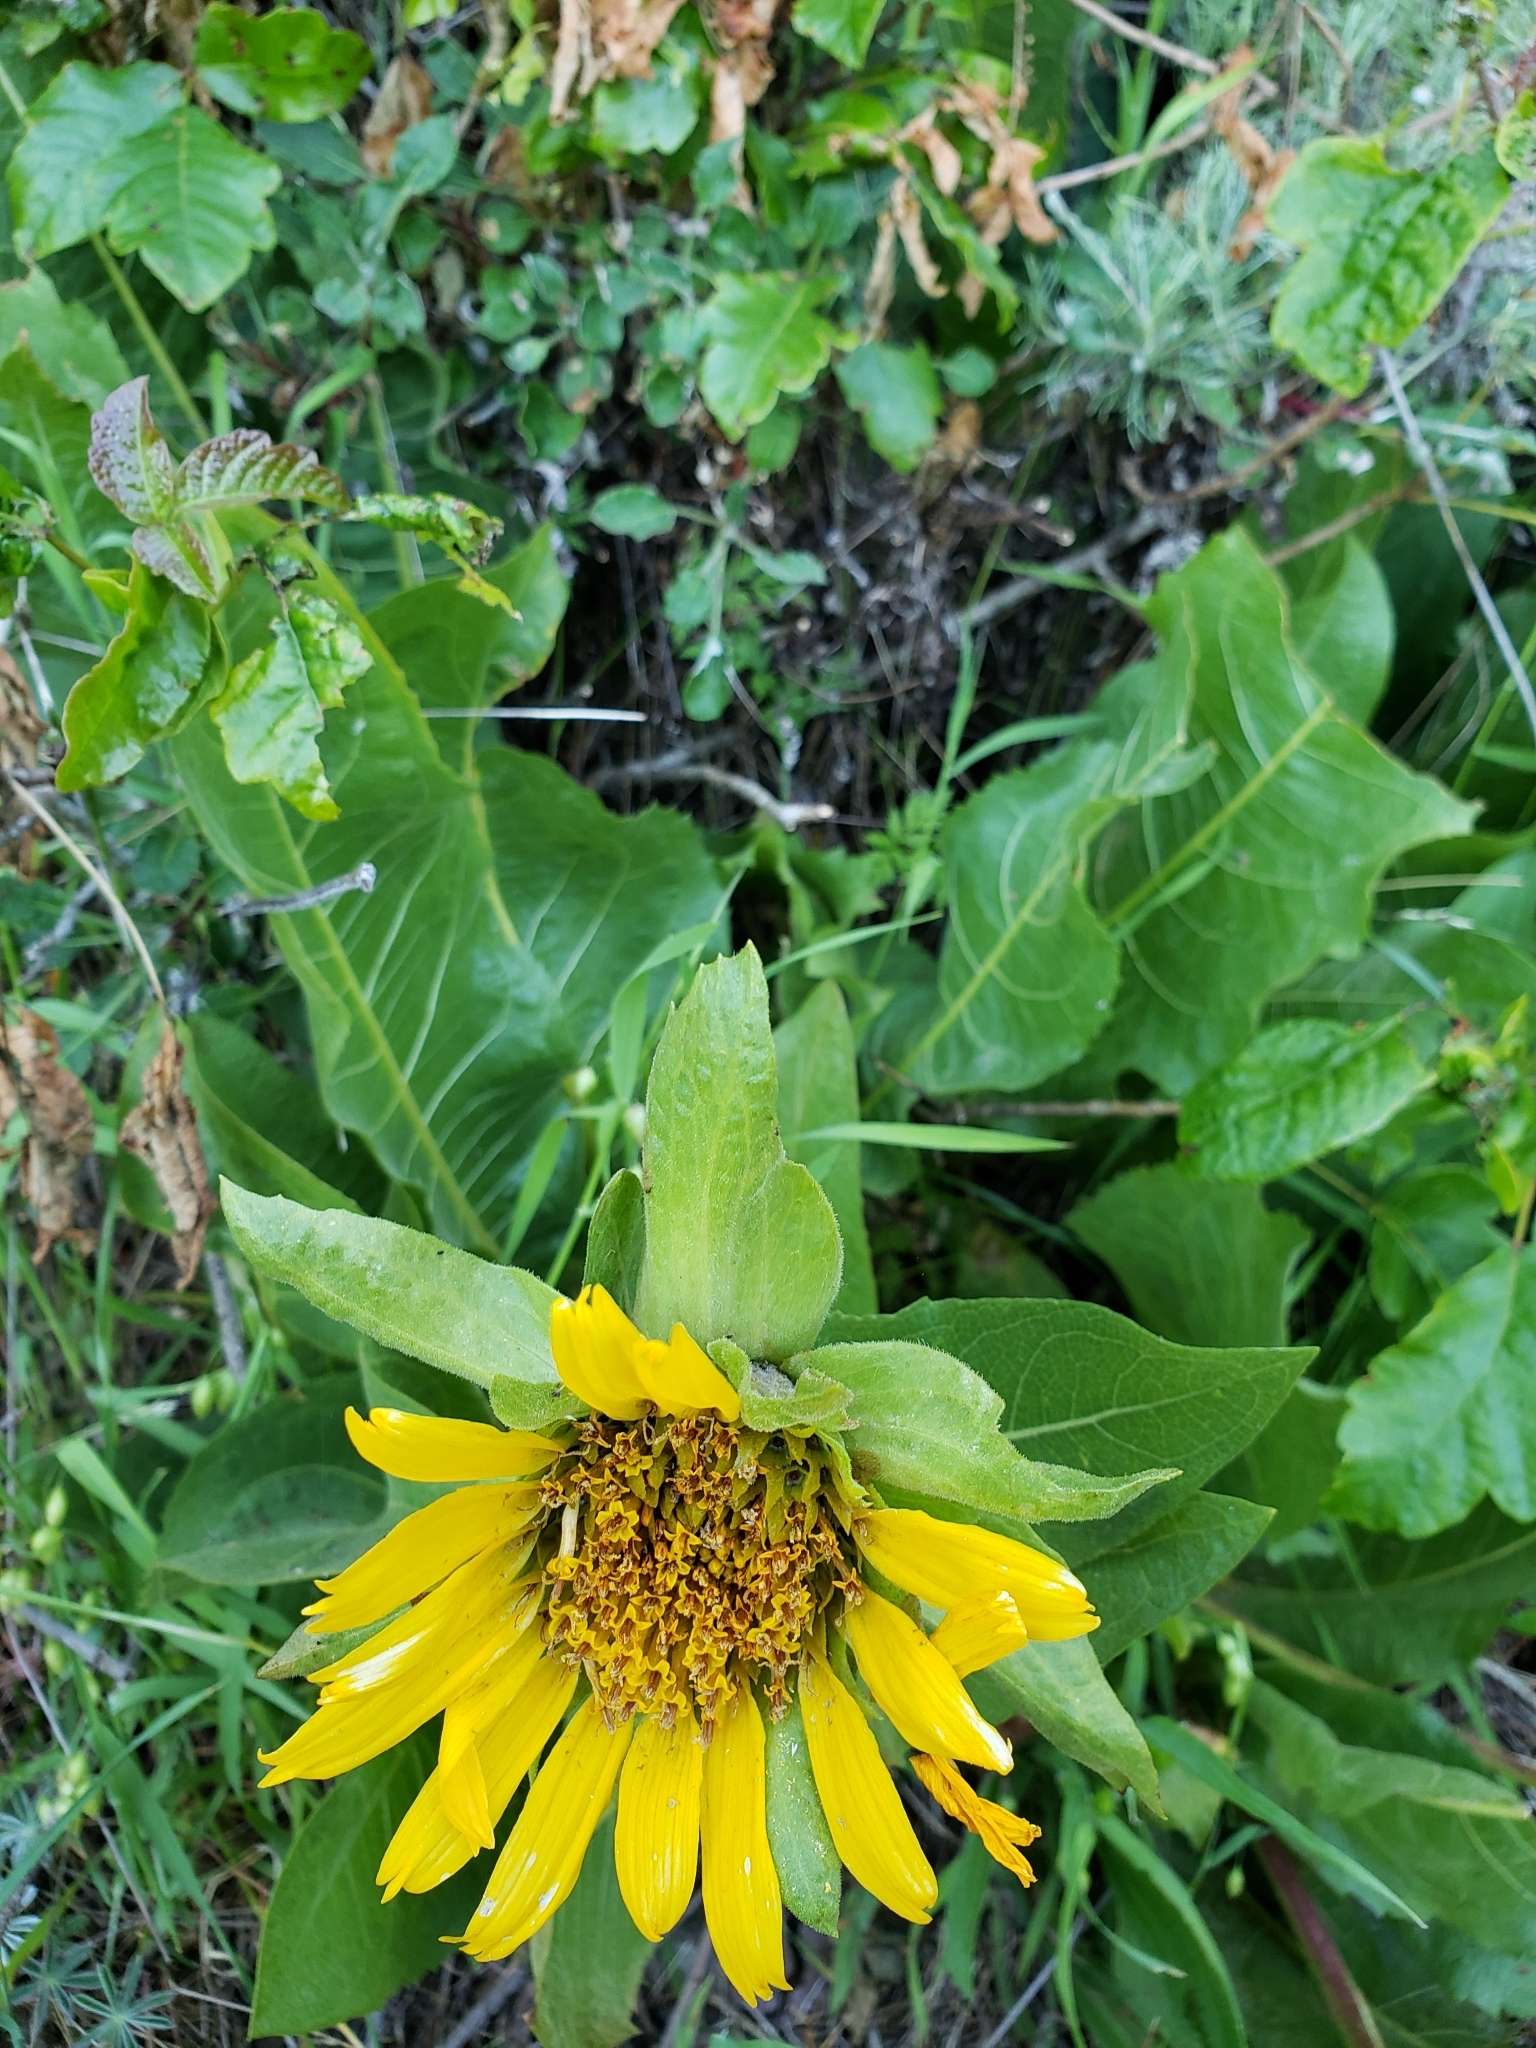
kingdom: Plantae
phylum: Tracheophyta
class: Magnoliopsida
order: Asterales
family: Asteraceae
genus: Wyethia
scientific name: Wyethia glabra
